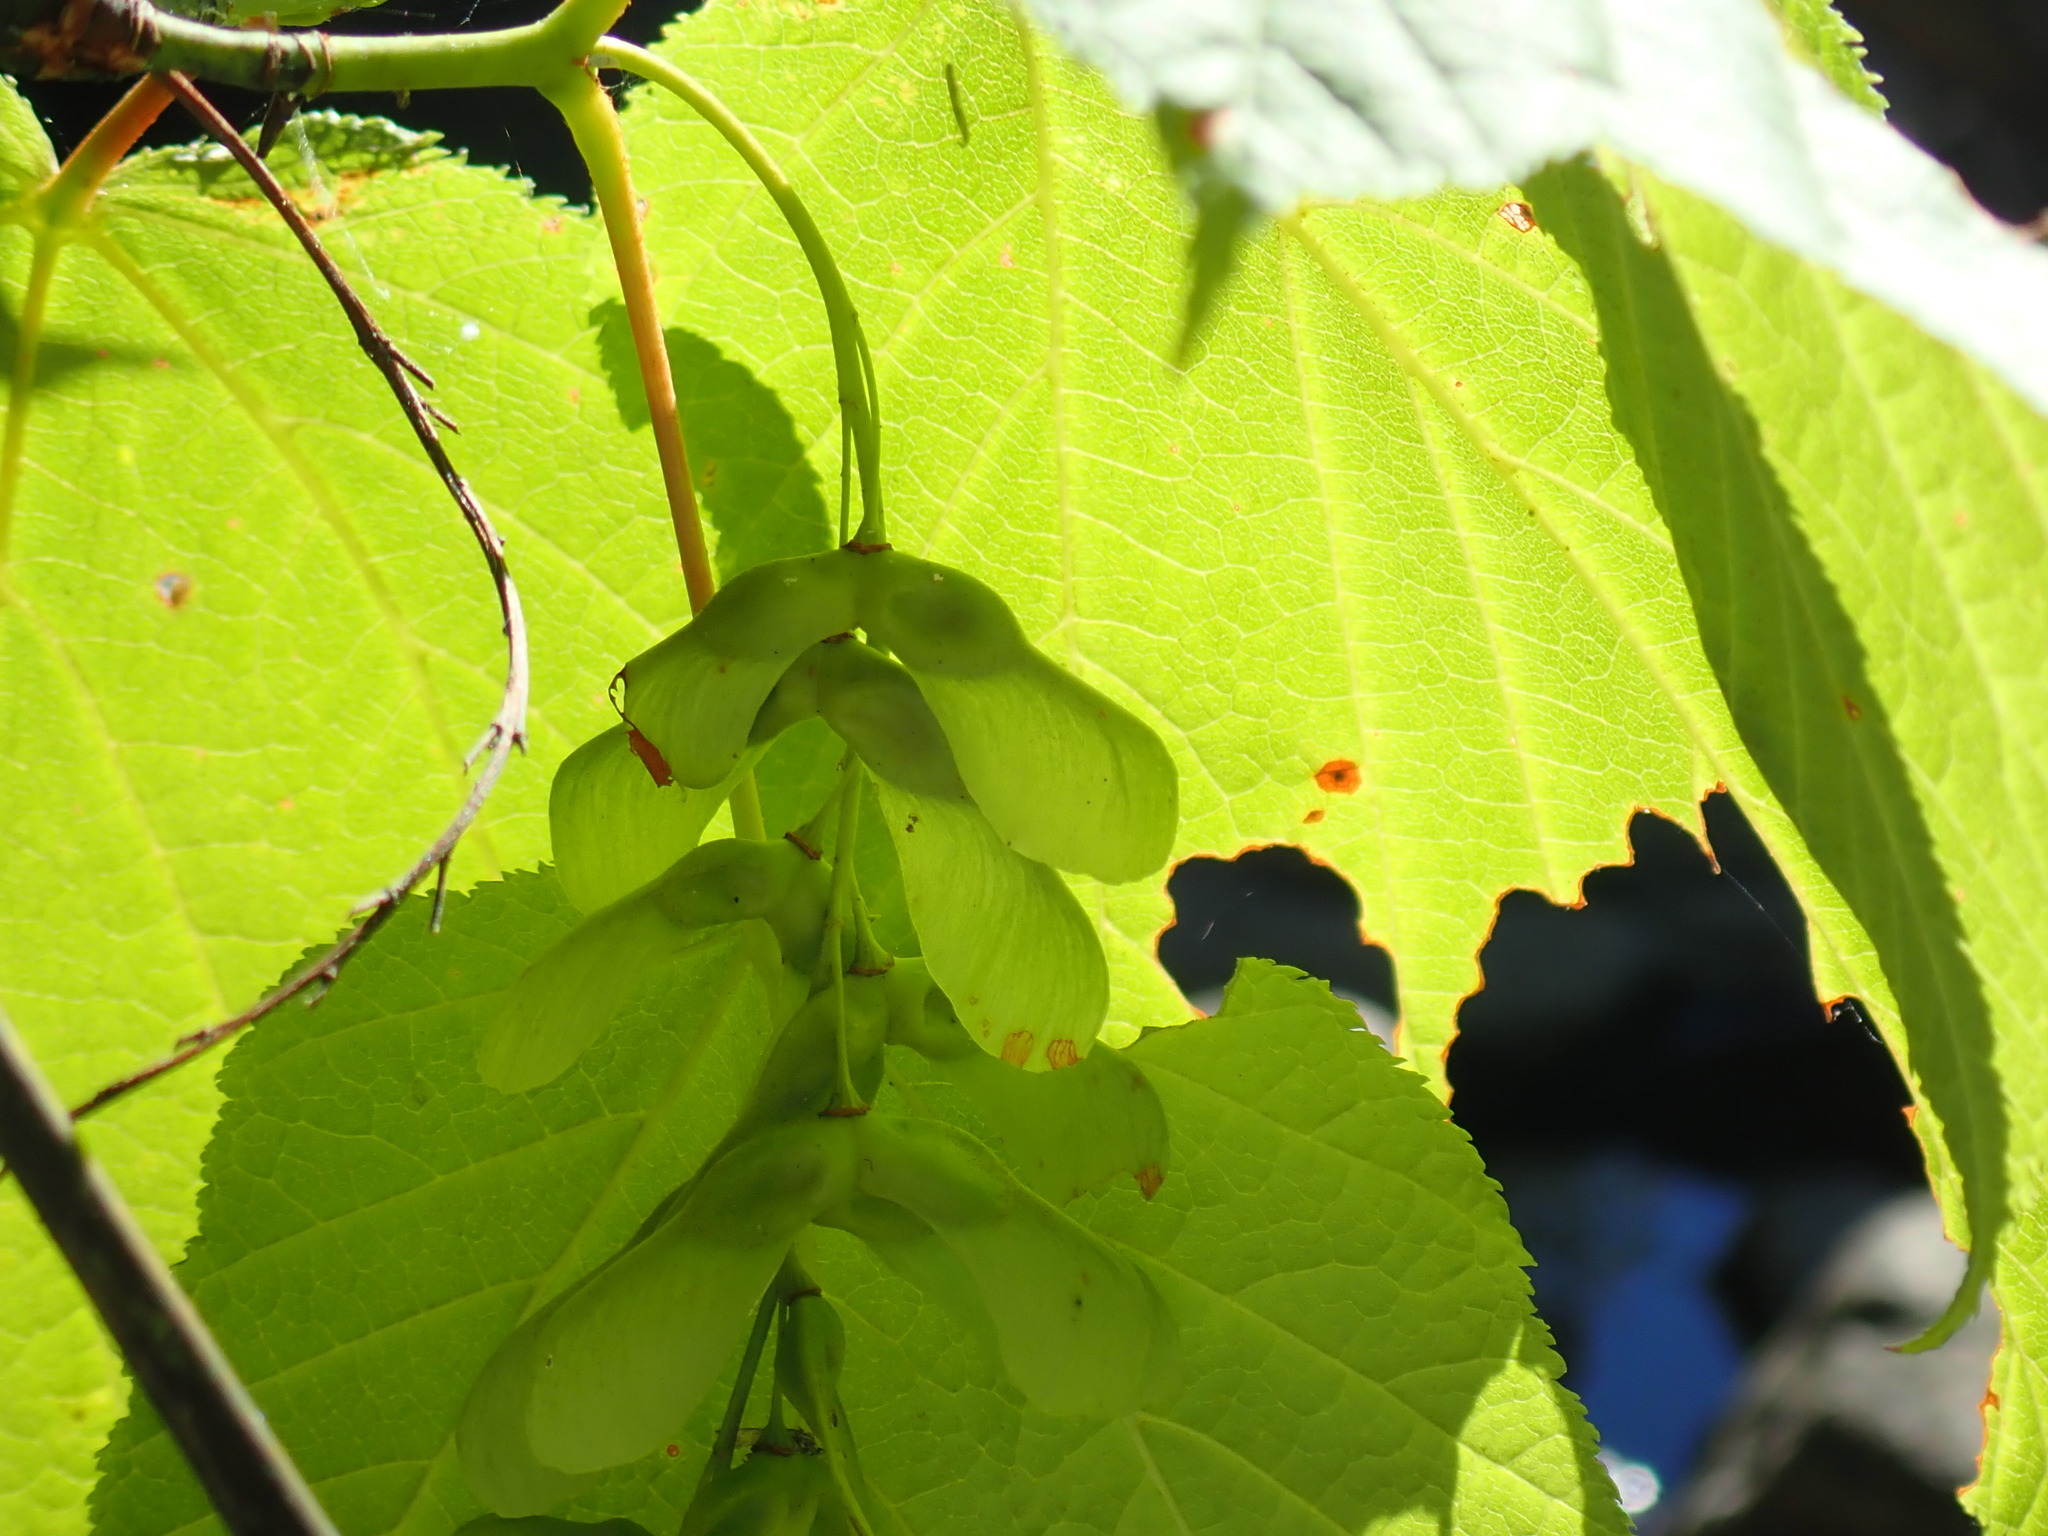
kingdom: Plantae
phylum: Tracheophyta
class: Magnoliopsida
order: Sapindales
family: Sapindaceae
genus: Acer
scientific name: Acer pensylvanicum
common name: Moosewood
